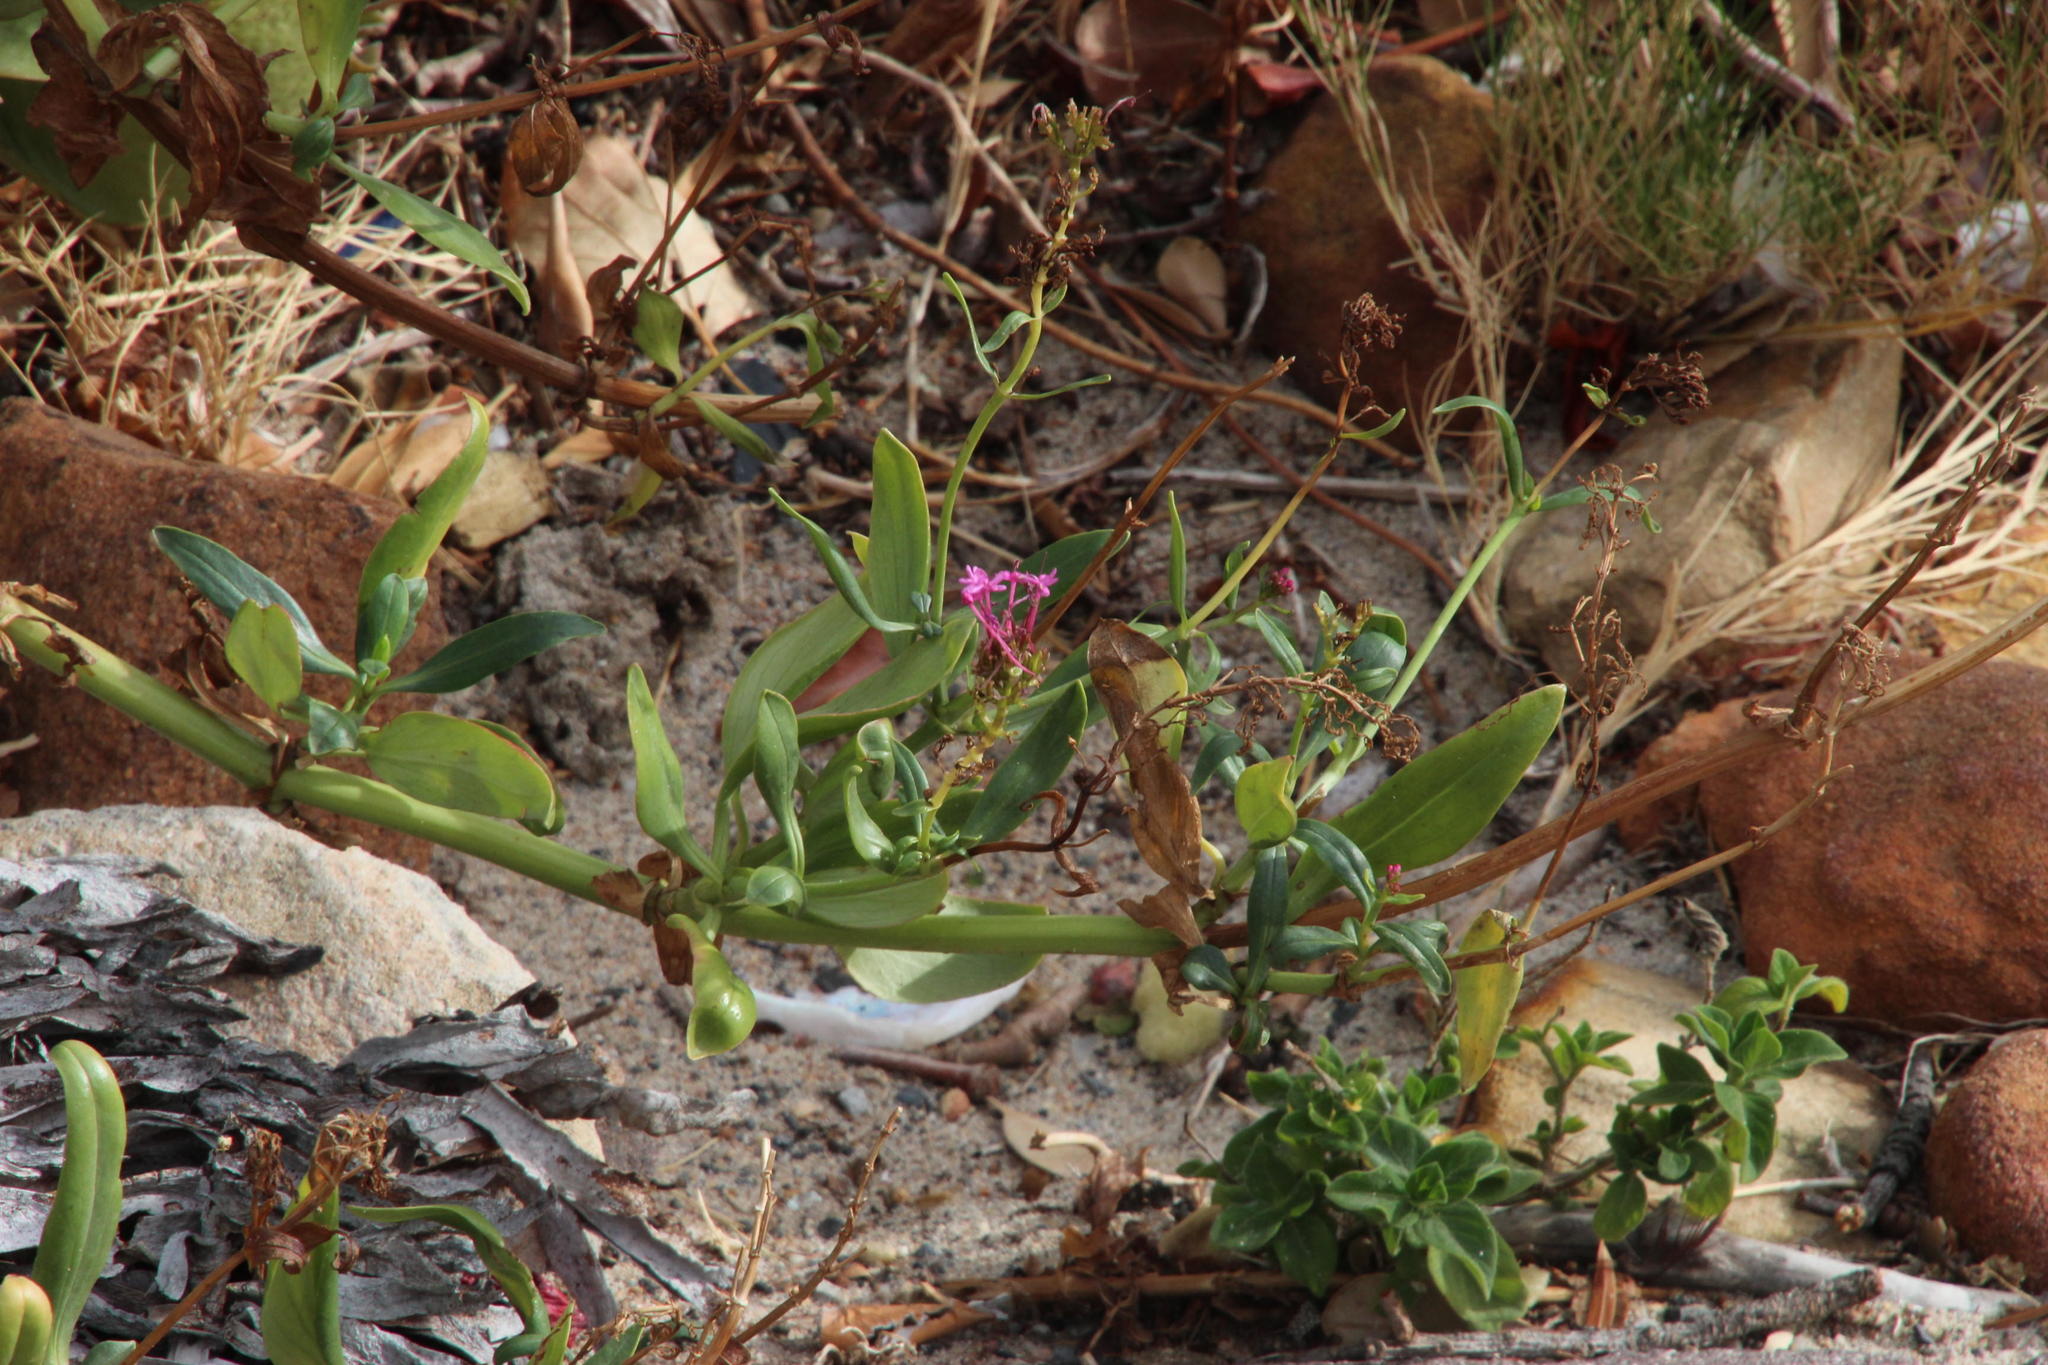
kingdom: Plantae
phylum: Tracheophyta
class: Magnoliopsida
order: Dipsacales
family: Caprifoliaceae
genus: Centranthus
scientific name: Centranthus ruber
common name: Red valerian
